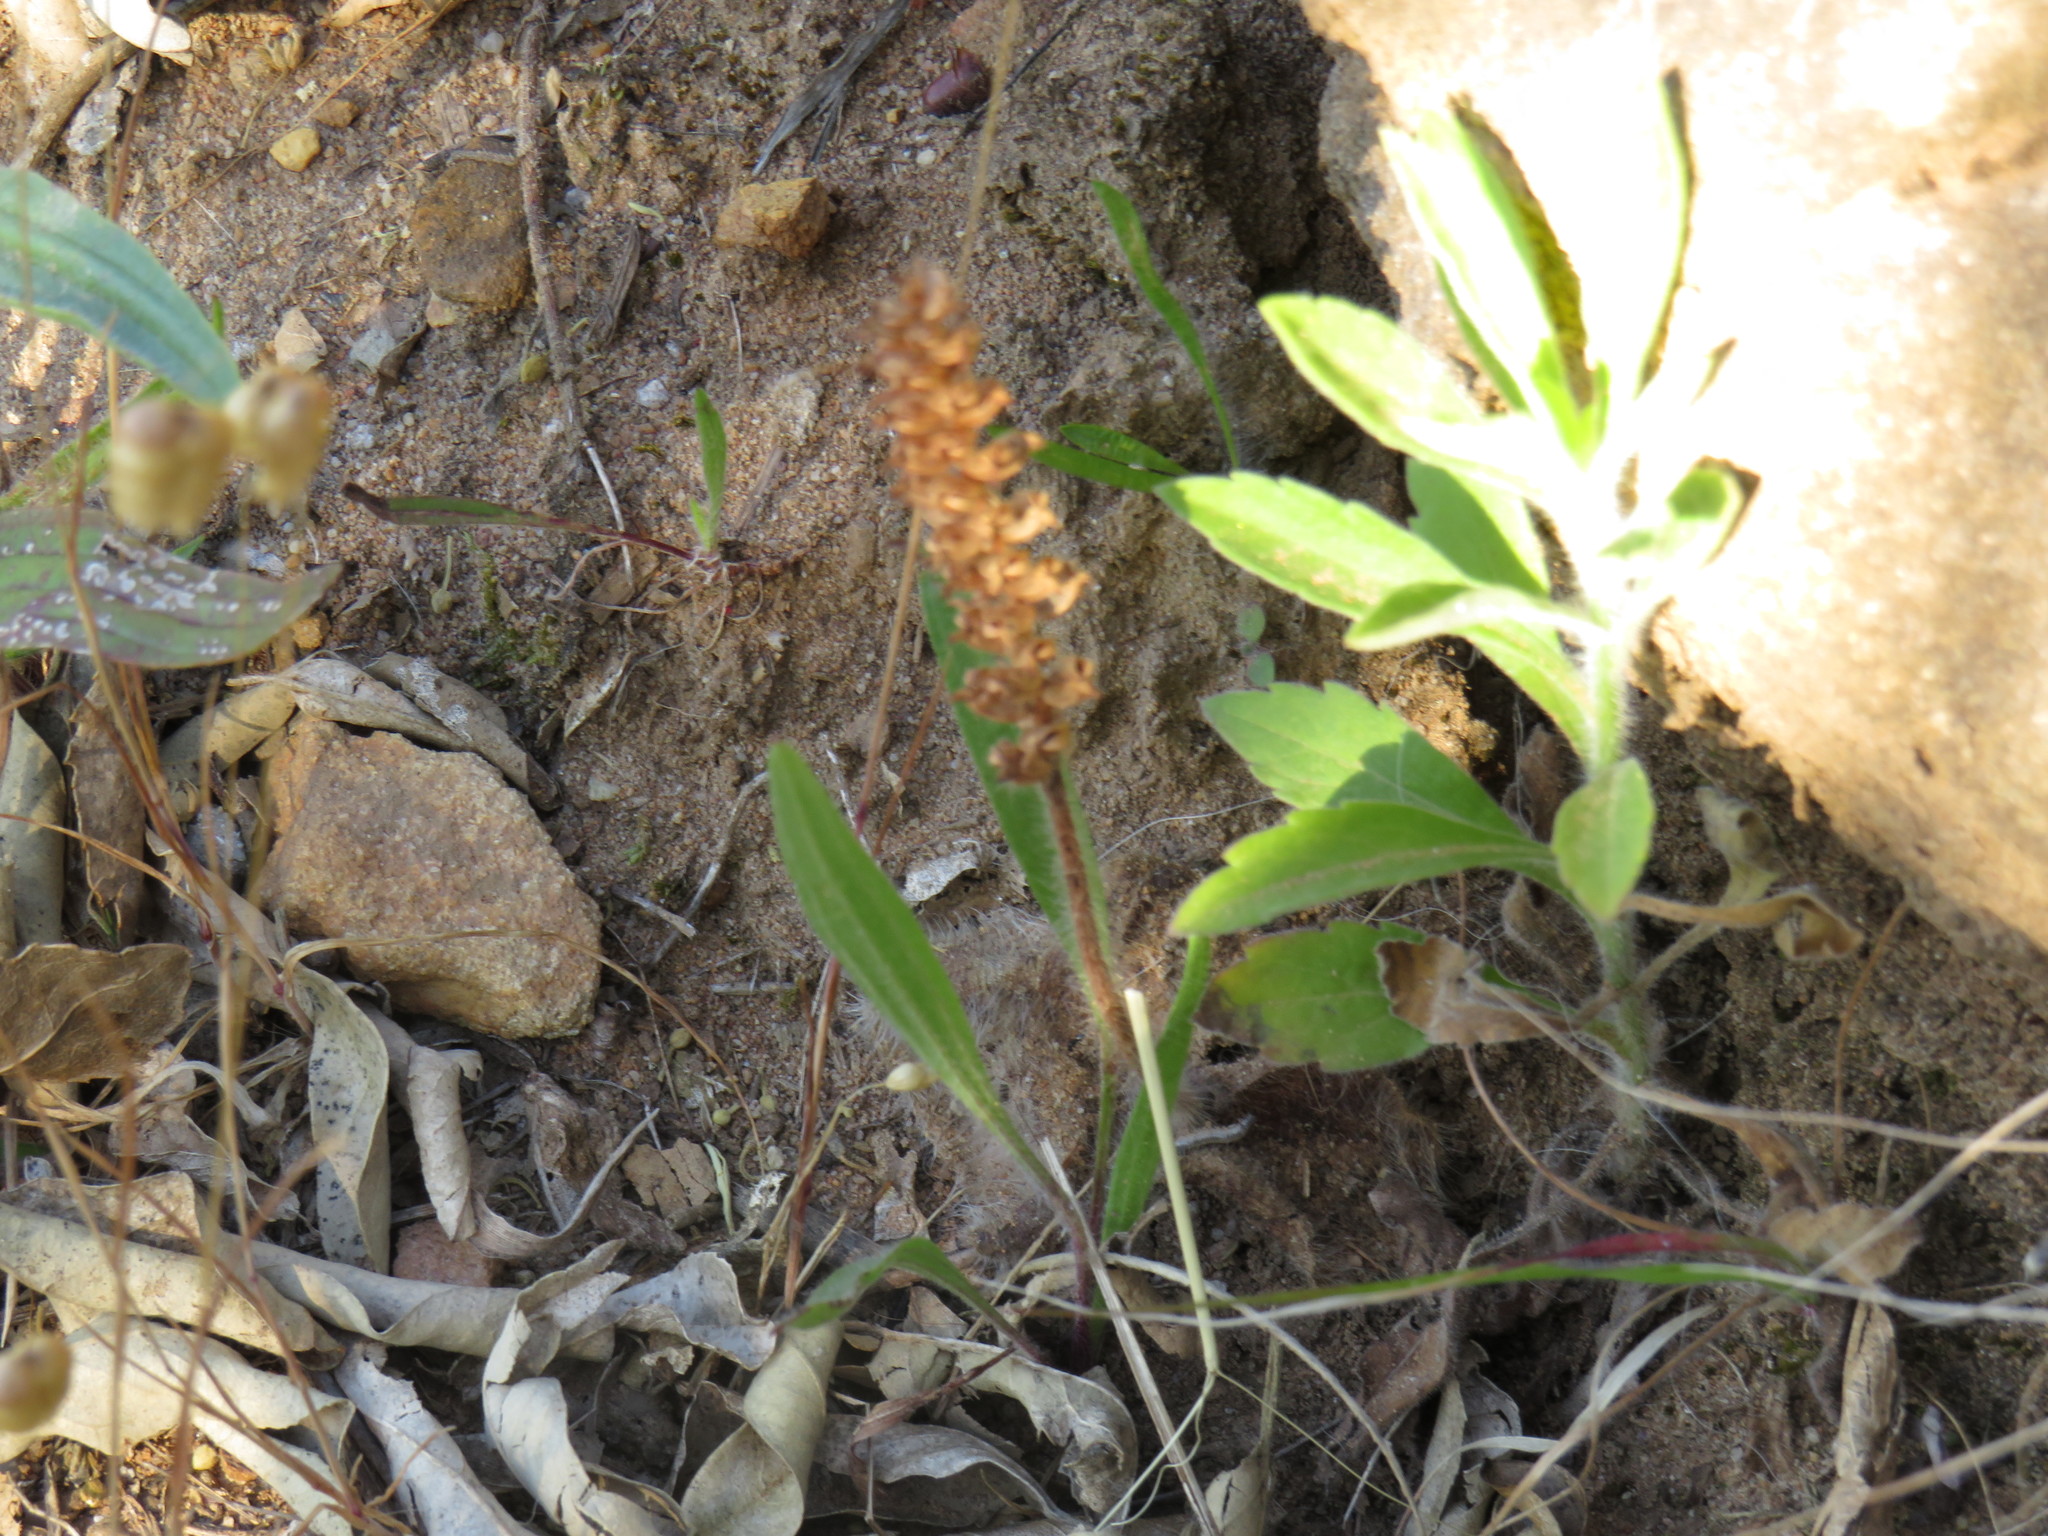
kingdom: Plantae
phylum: Tracheophyta
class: Liliopsida
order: Asparagales
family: Orchidaceae
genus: Holothrix
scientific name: Holothrix villosa
